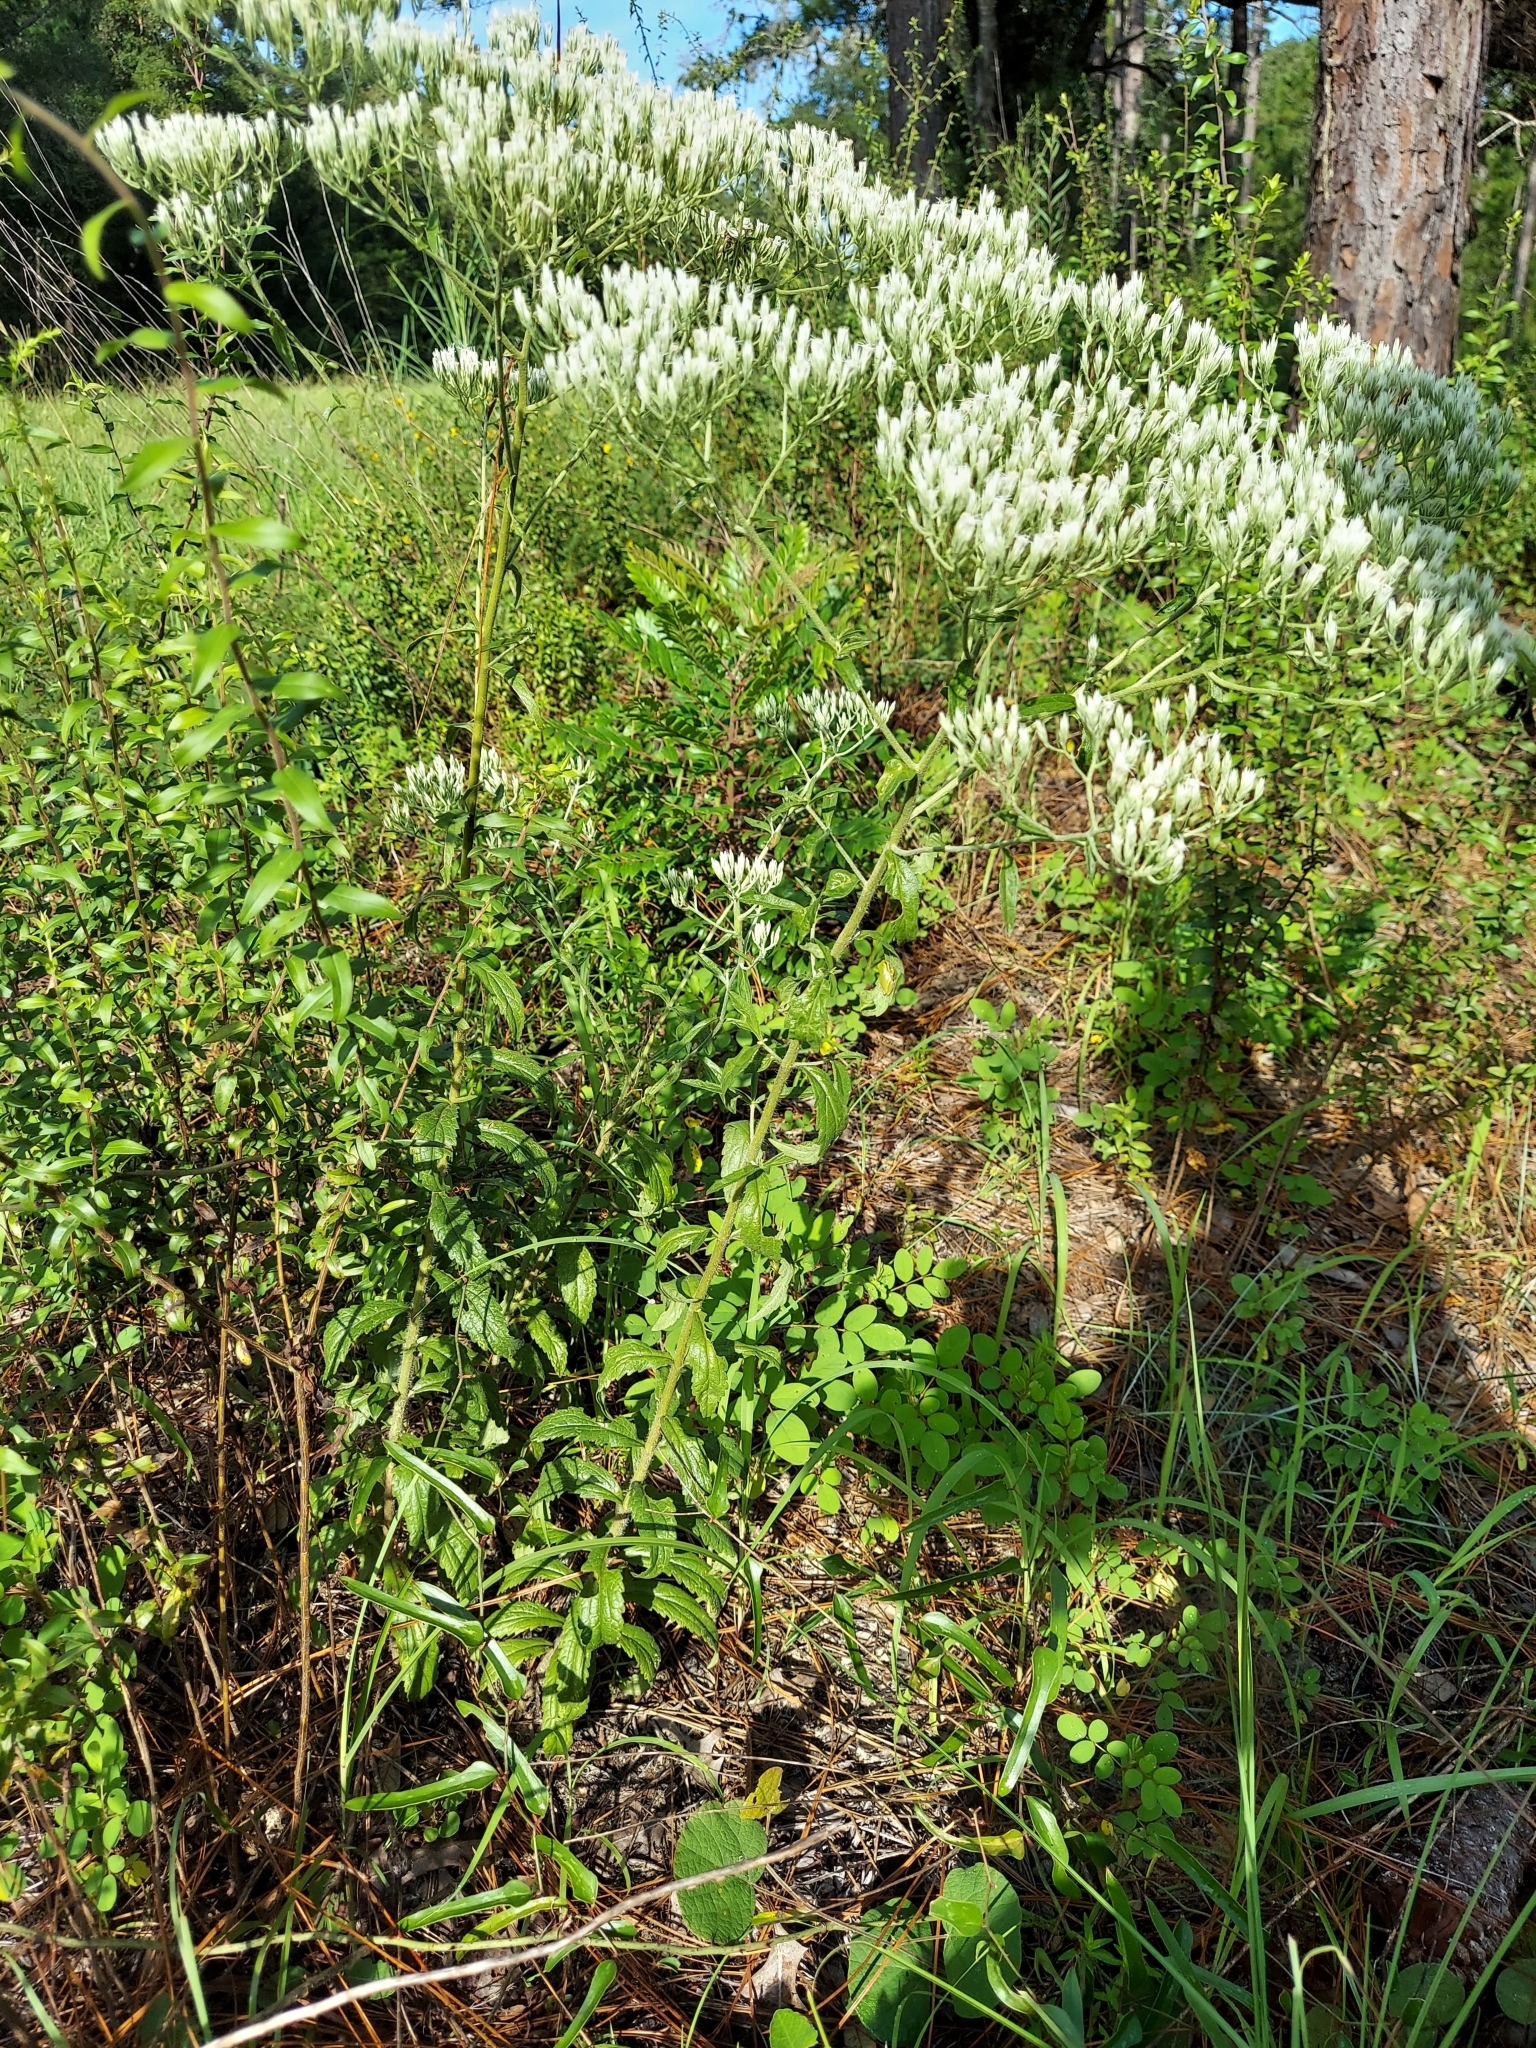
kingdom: Plantae
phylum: Tracheophyta
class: Magnoliopsida
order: Asterales
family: Asteraceae
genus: Eupatorium
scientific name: Eupatorium album
